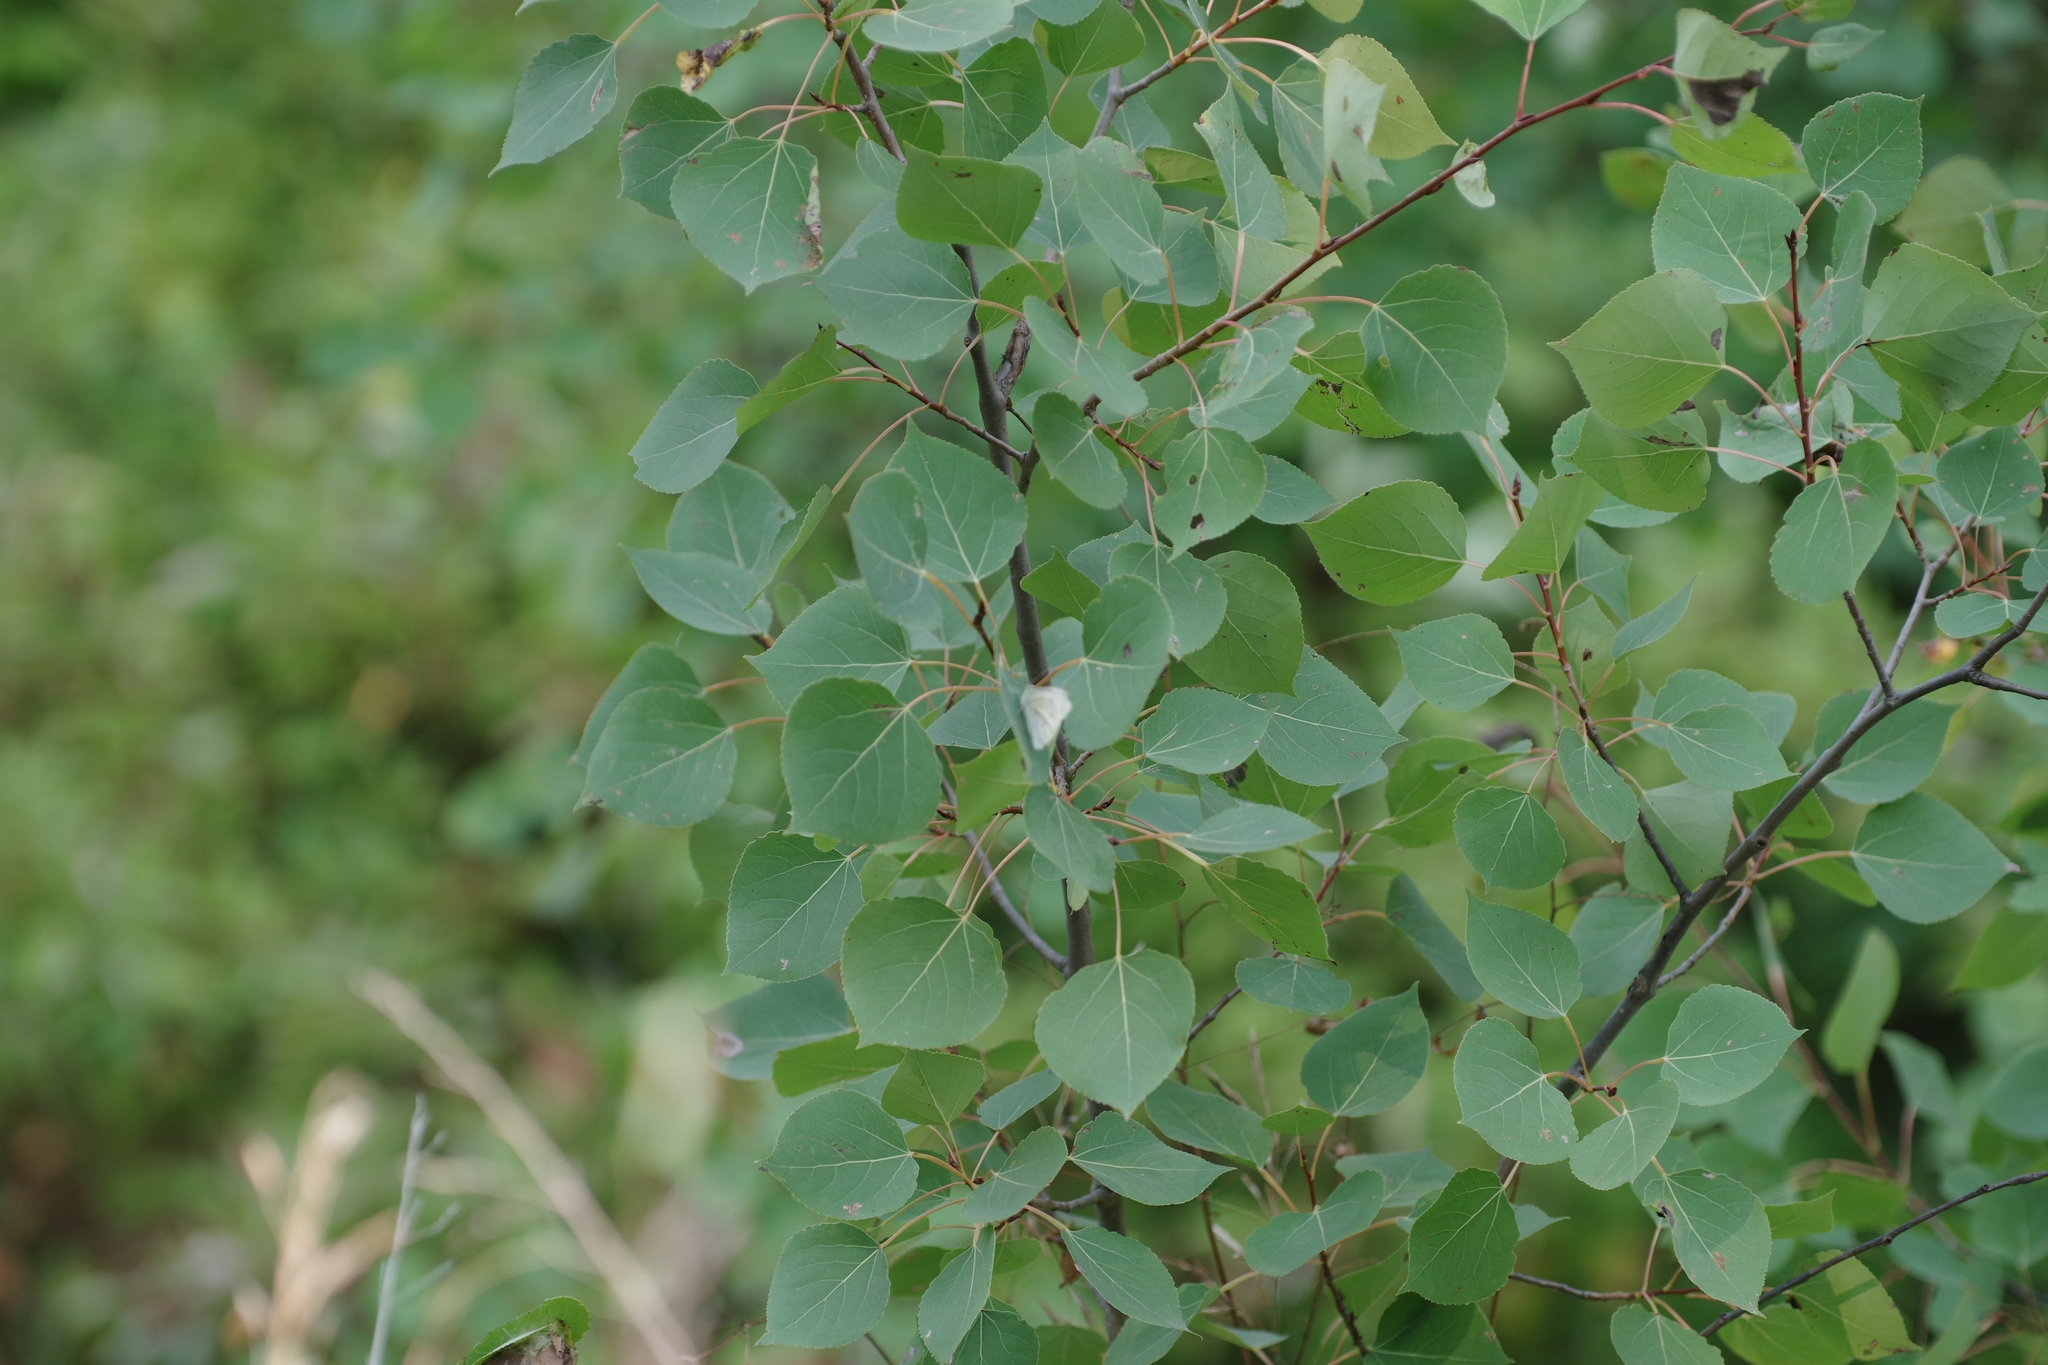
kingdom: Plantae
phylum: Tracheophyta
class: Magnoliopsida
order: Malpighiales
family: Salicaceae
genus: Populus
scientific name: Populus tremuloides
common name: Quaking aspen
